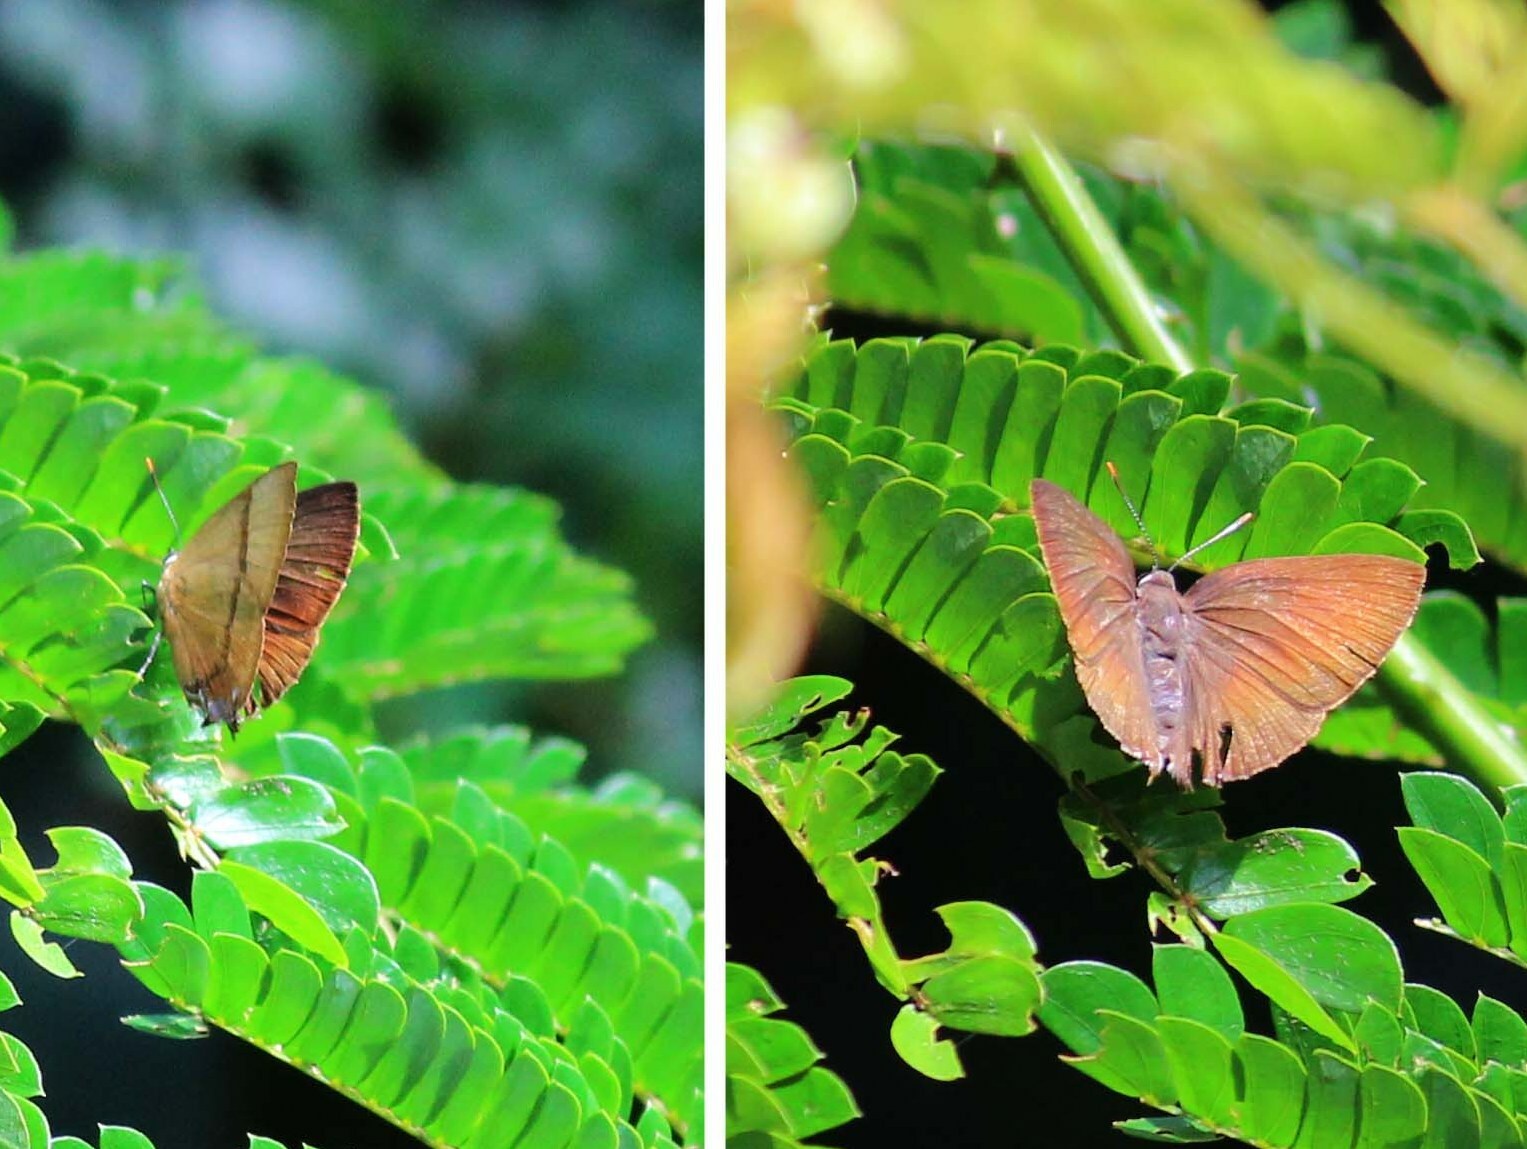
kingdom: Animalia
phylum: Arthropoda
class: Insecta
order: Lepidoptera
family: Lycaenidae
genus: Rapala
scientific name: Rapala lankana
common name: Malabar flash
